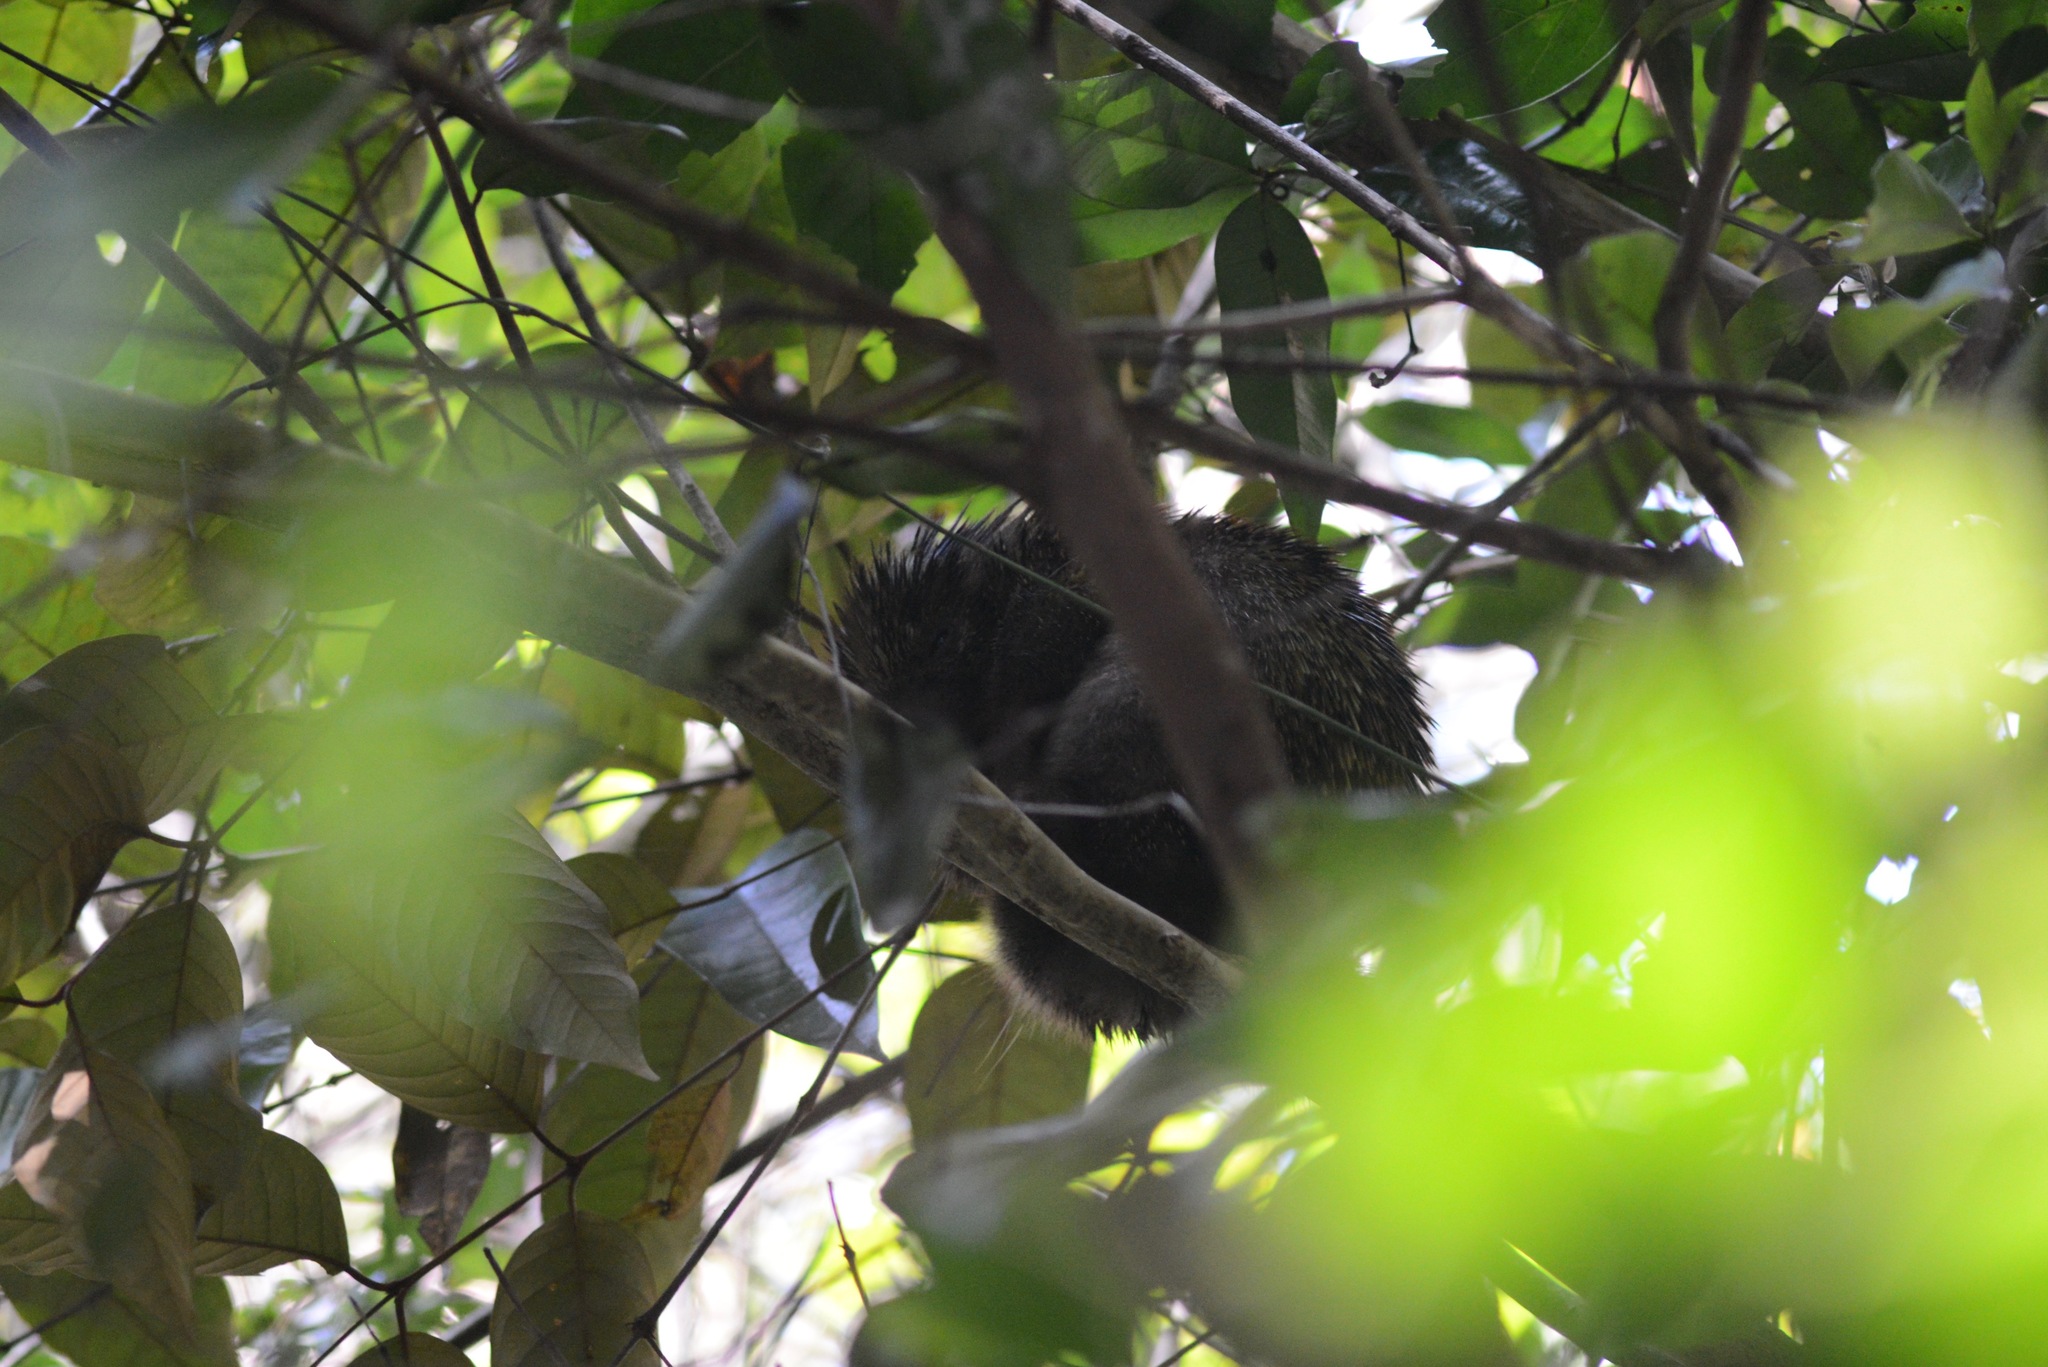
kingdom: Animalia
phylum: Chordata
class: Mammalia
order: Rodentia
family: Erethizontidae
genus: Coendou
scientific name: Coendou speratus
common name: Pernambuco dwarf porcupine
